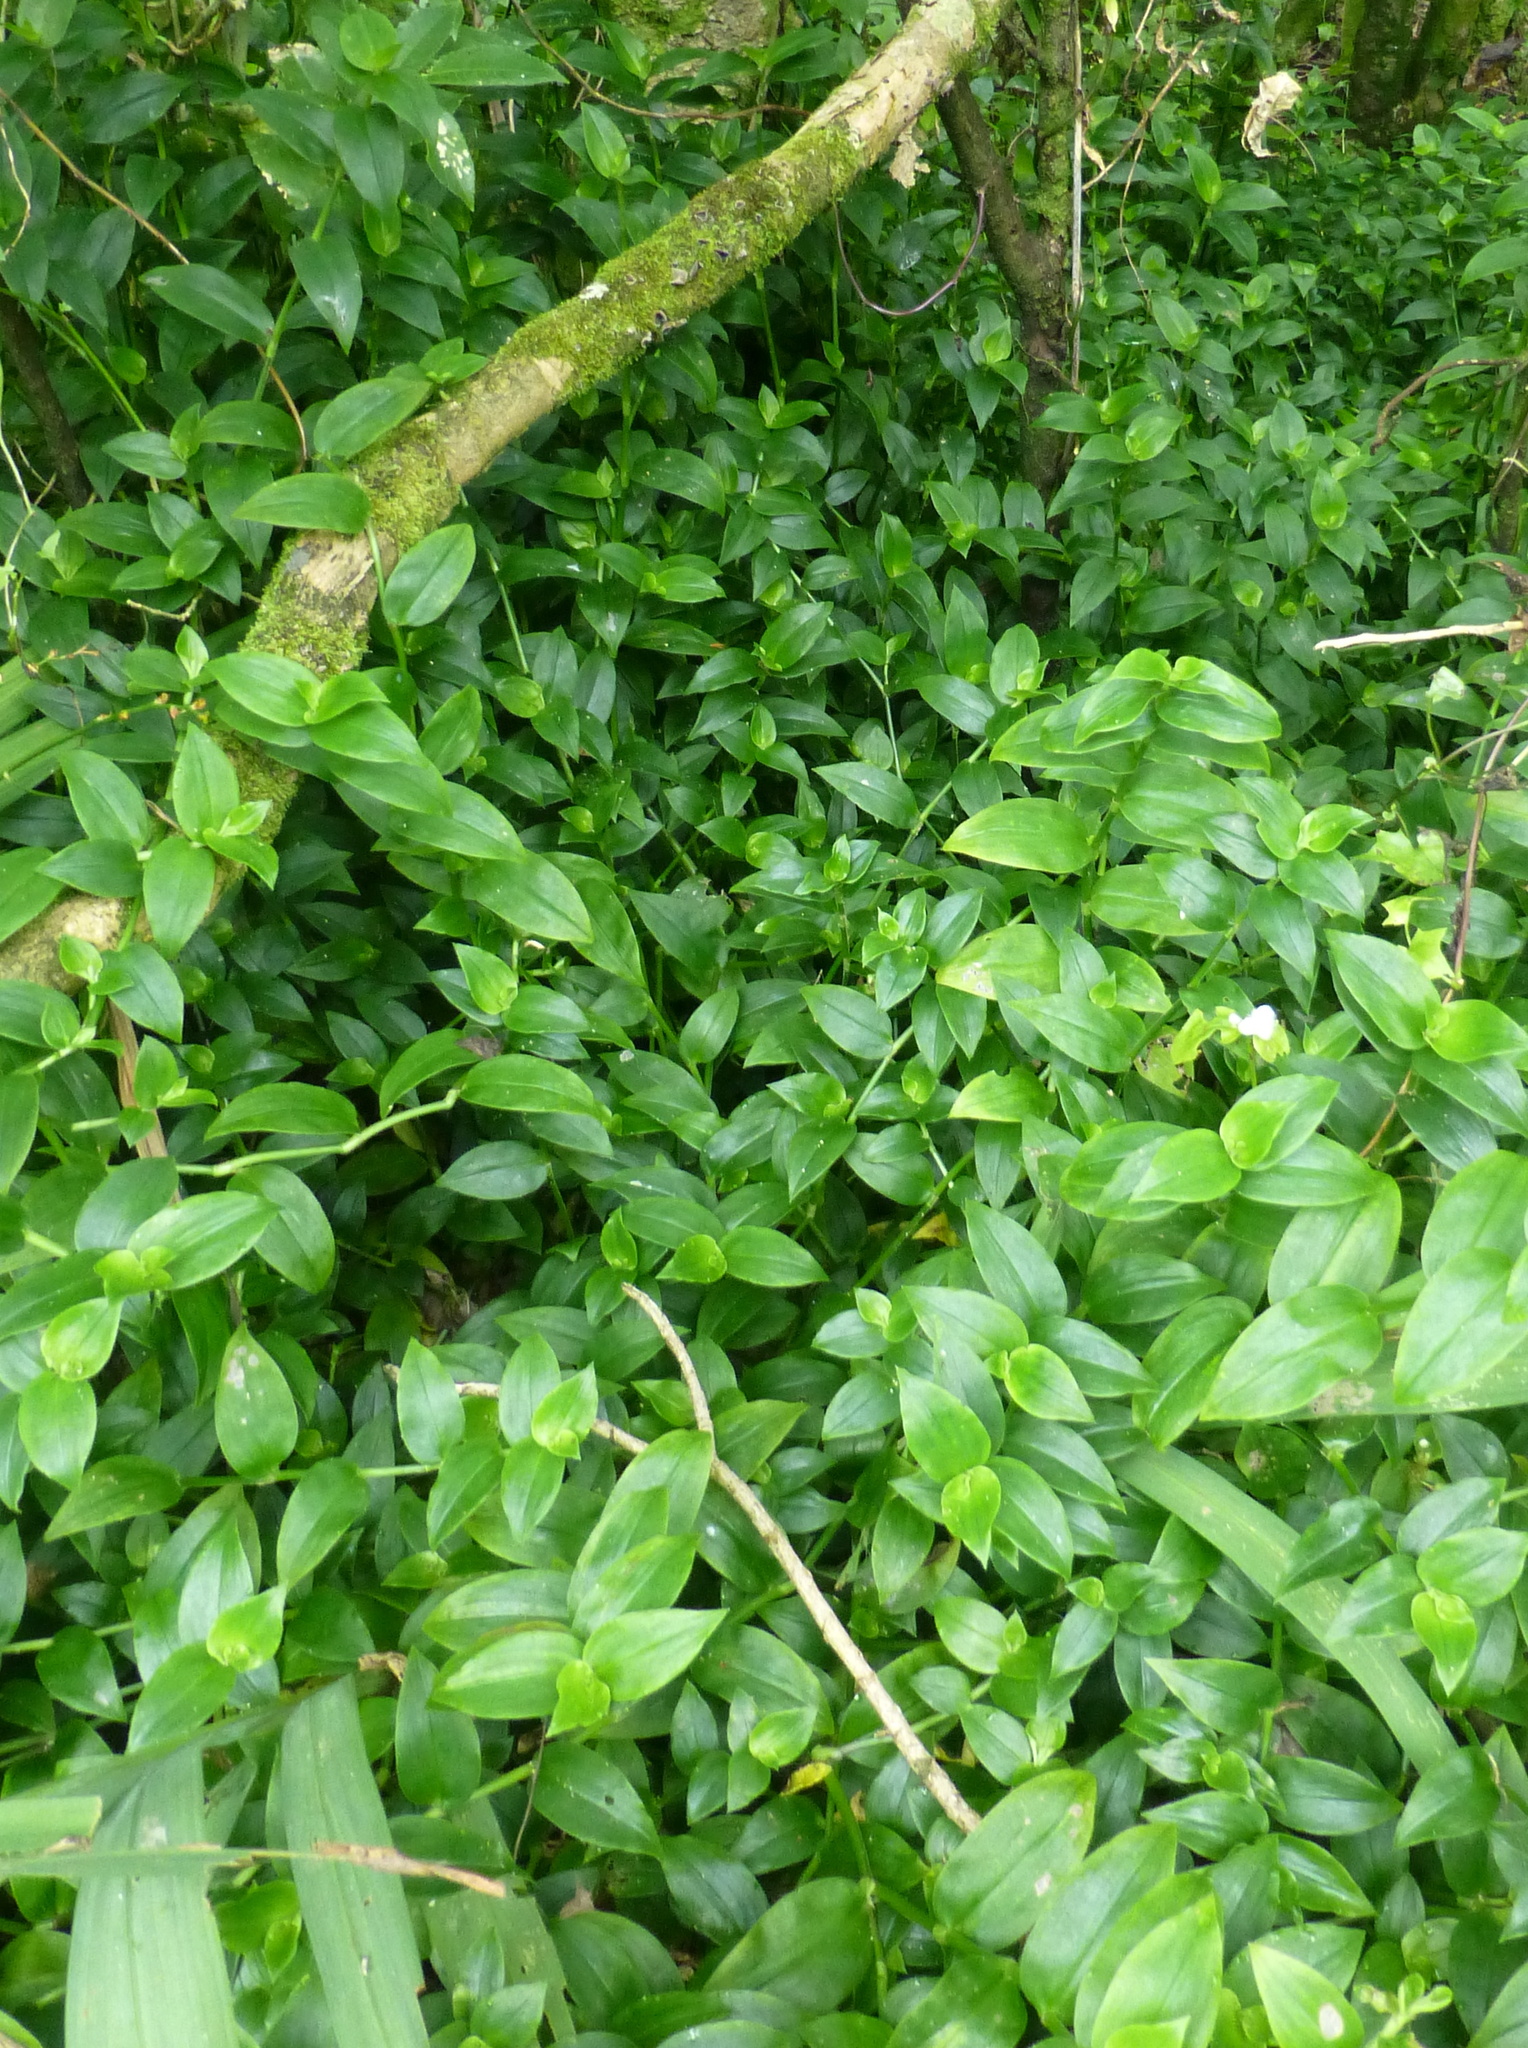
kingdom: Plantae
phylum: Tracheophyta
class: Liliopsida
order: Commelinales
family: Commelinaceae
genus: Tradescantia
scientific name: Tradescantia fluminensis
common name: Wandering-jew
